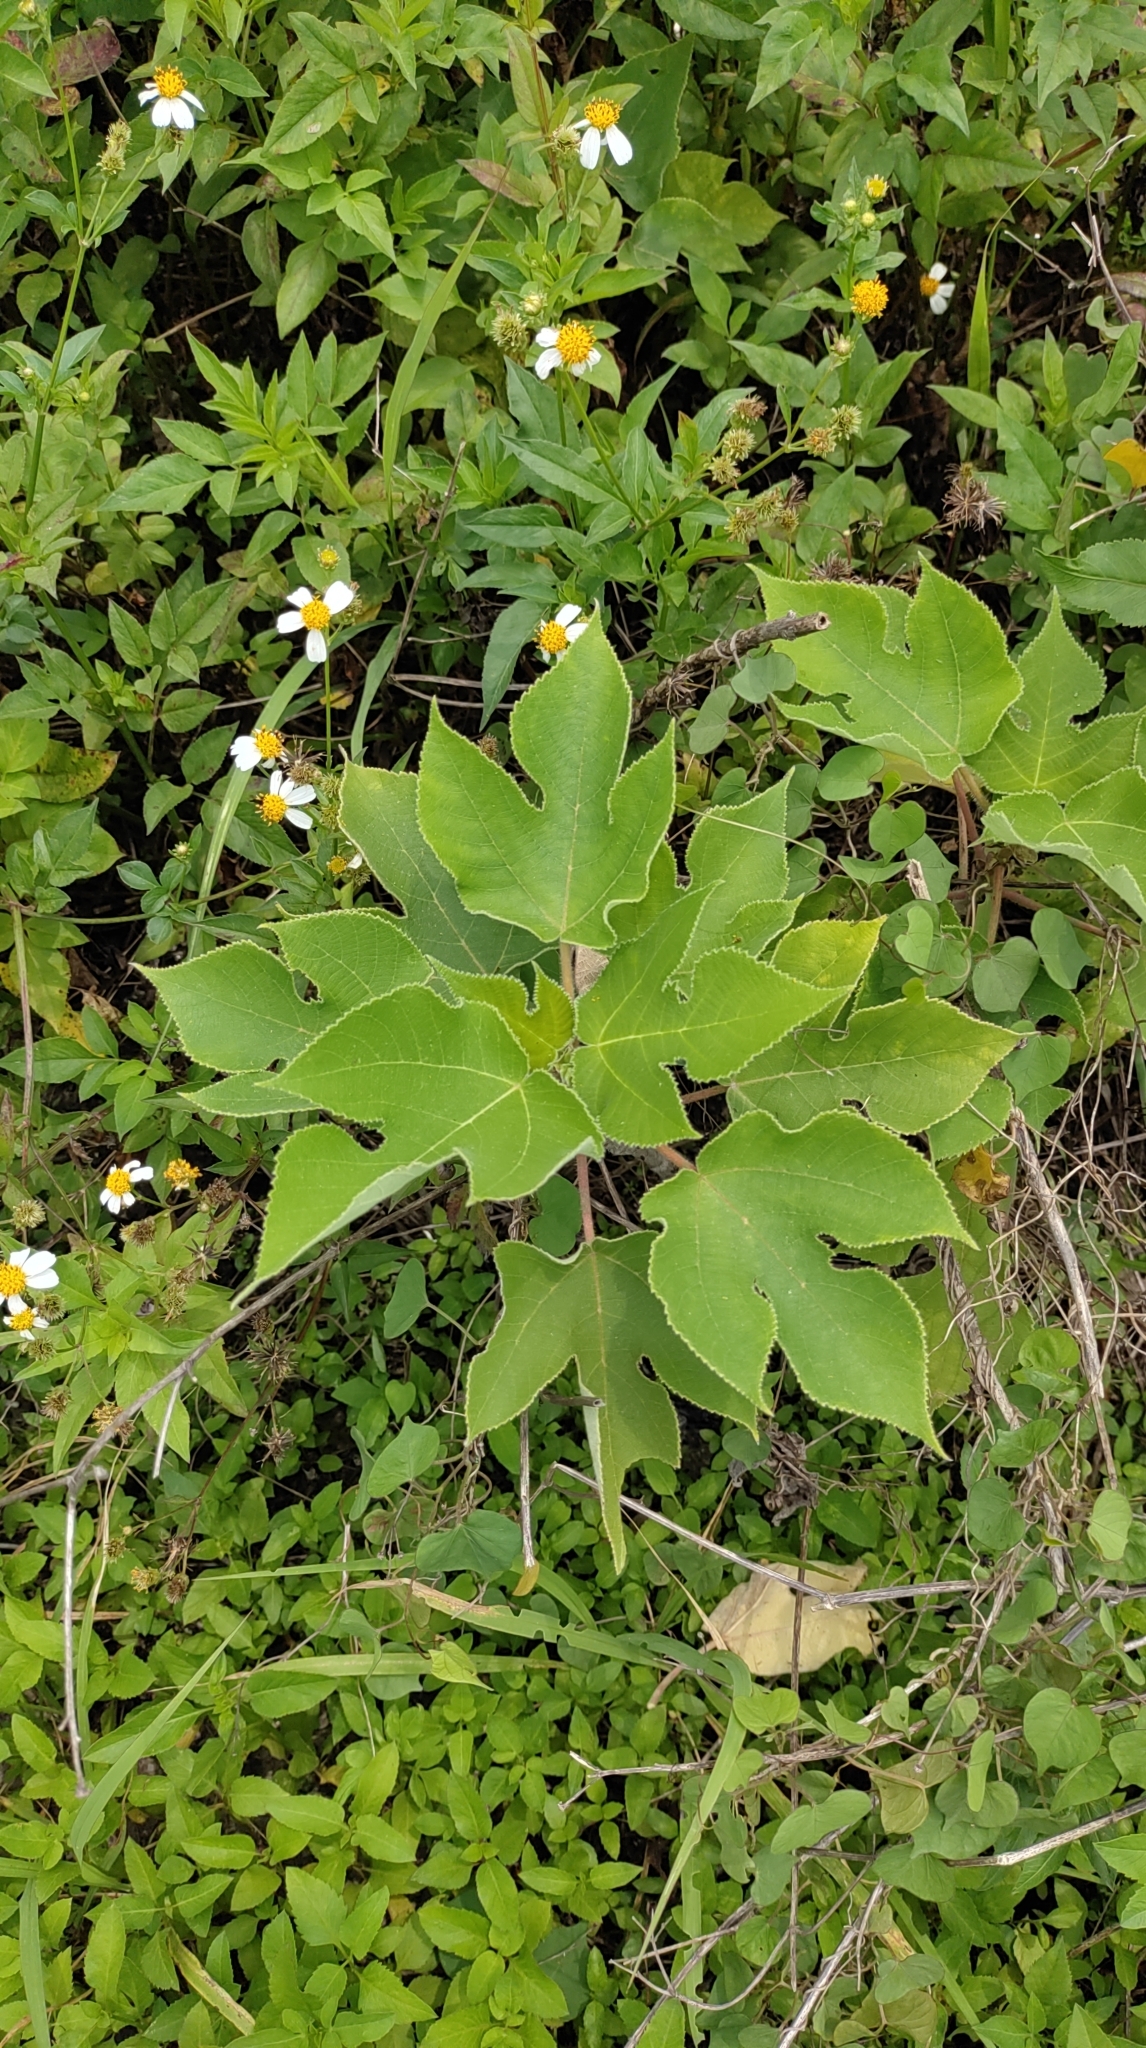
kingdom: Plantae
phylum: Tracheophyta
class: Magnoliopsida
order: Rosales
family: Moraceae
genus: Broussonetia
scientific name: Broussonetia papyrifera
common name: Paper mulberry
